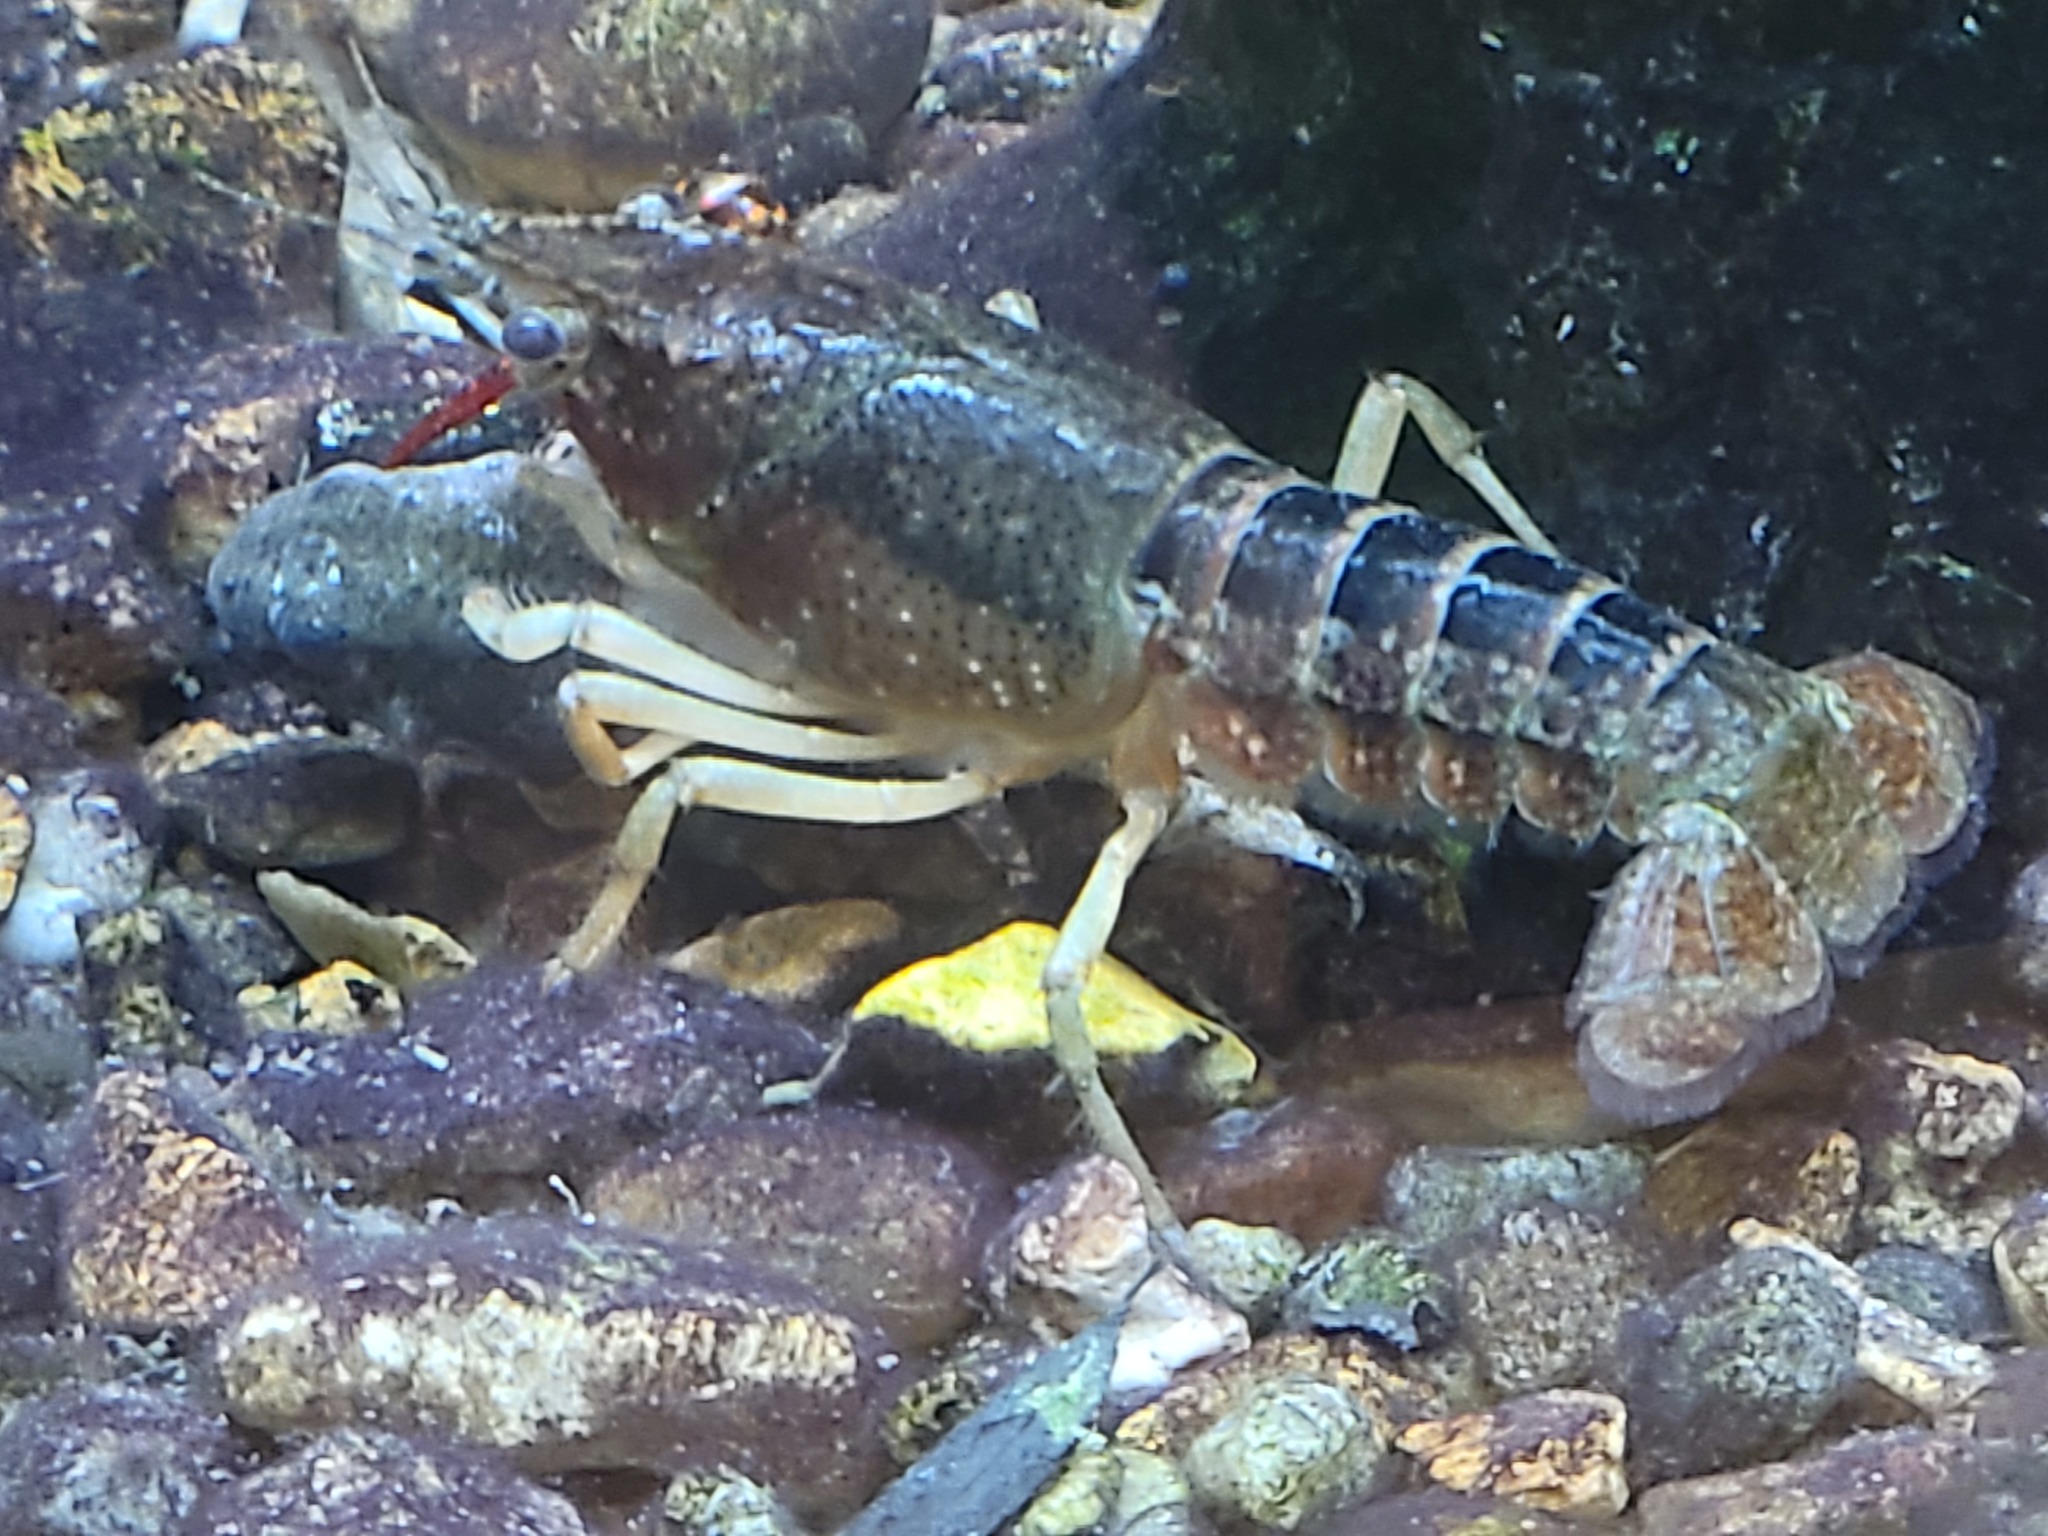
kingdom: Animalia
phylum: Arthropoda
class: Malacostraca
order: Decapoda
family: Cambaridae
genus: Procambarus
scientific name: Procambarus clarkii
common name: Red swamp crayfish
